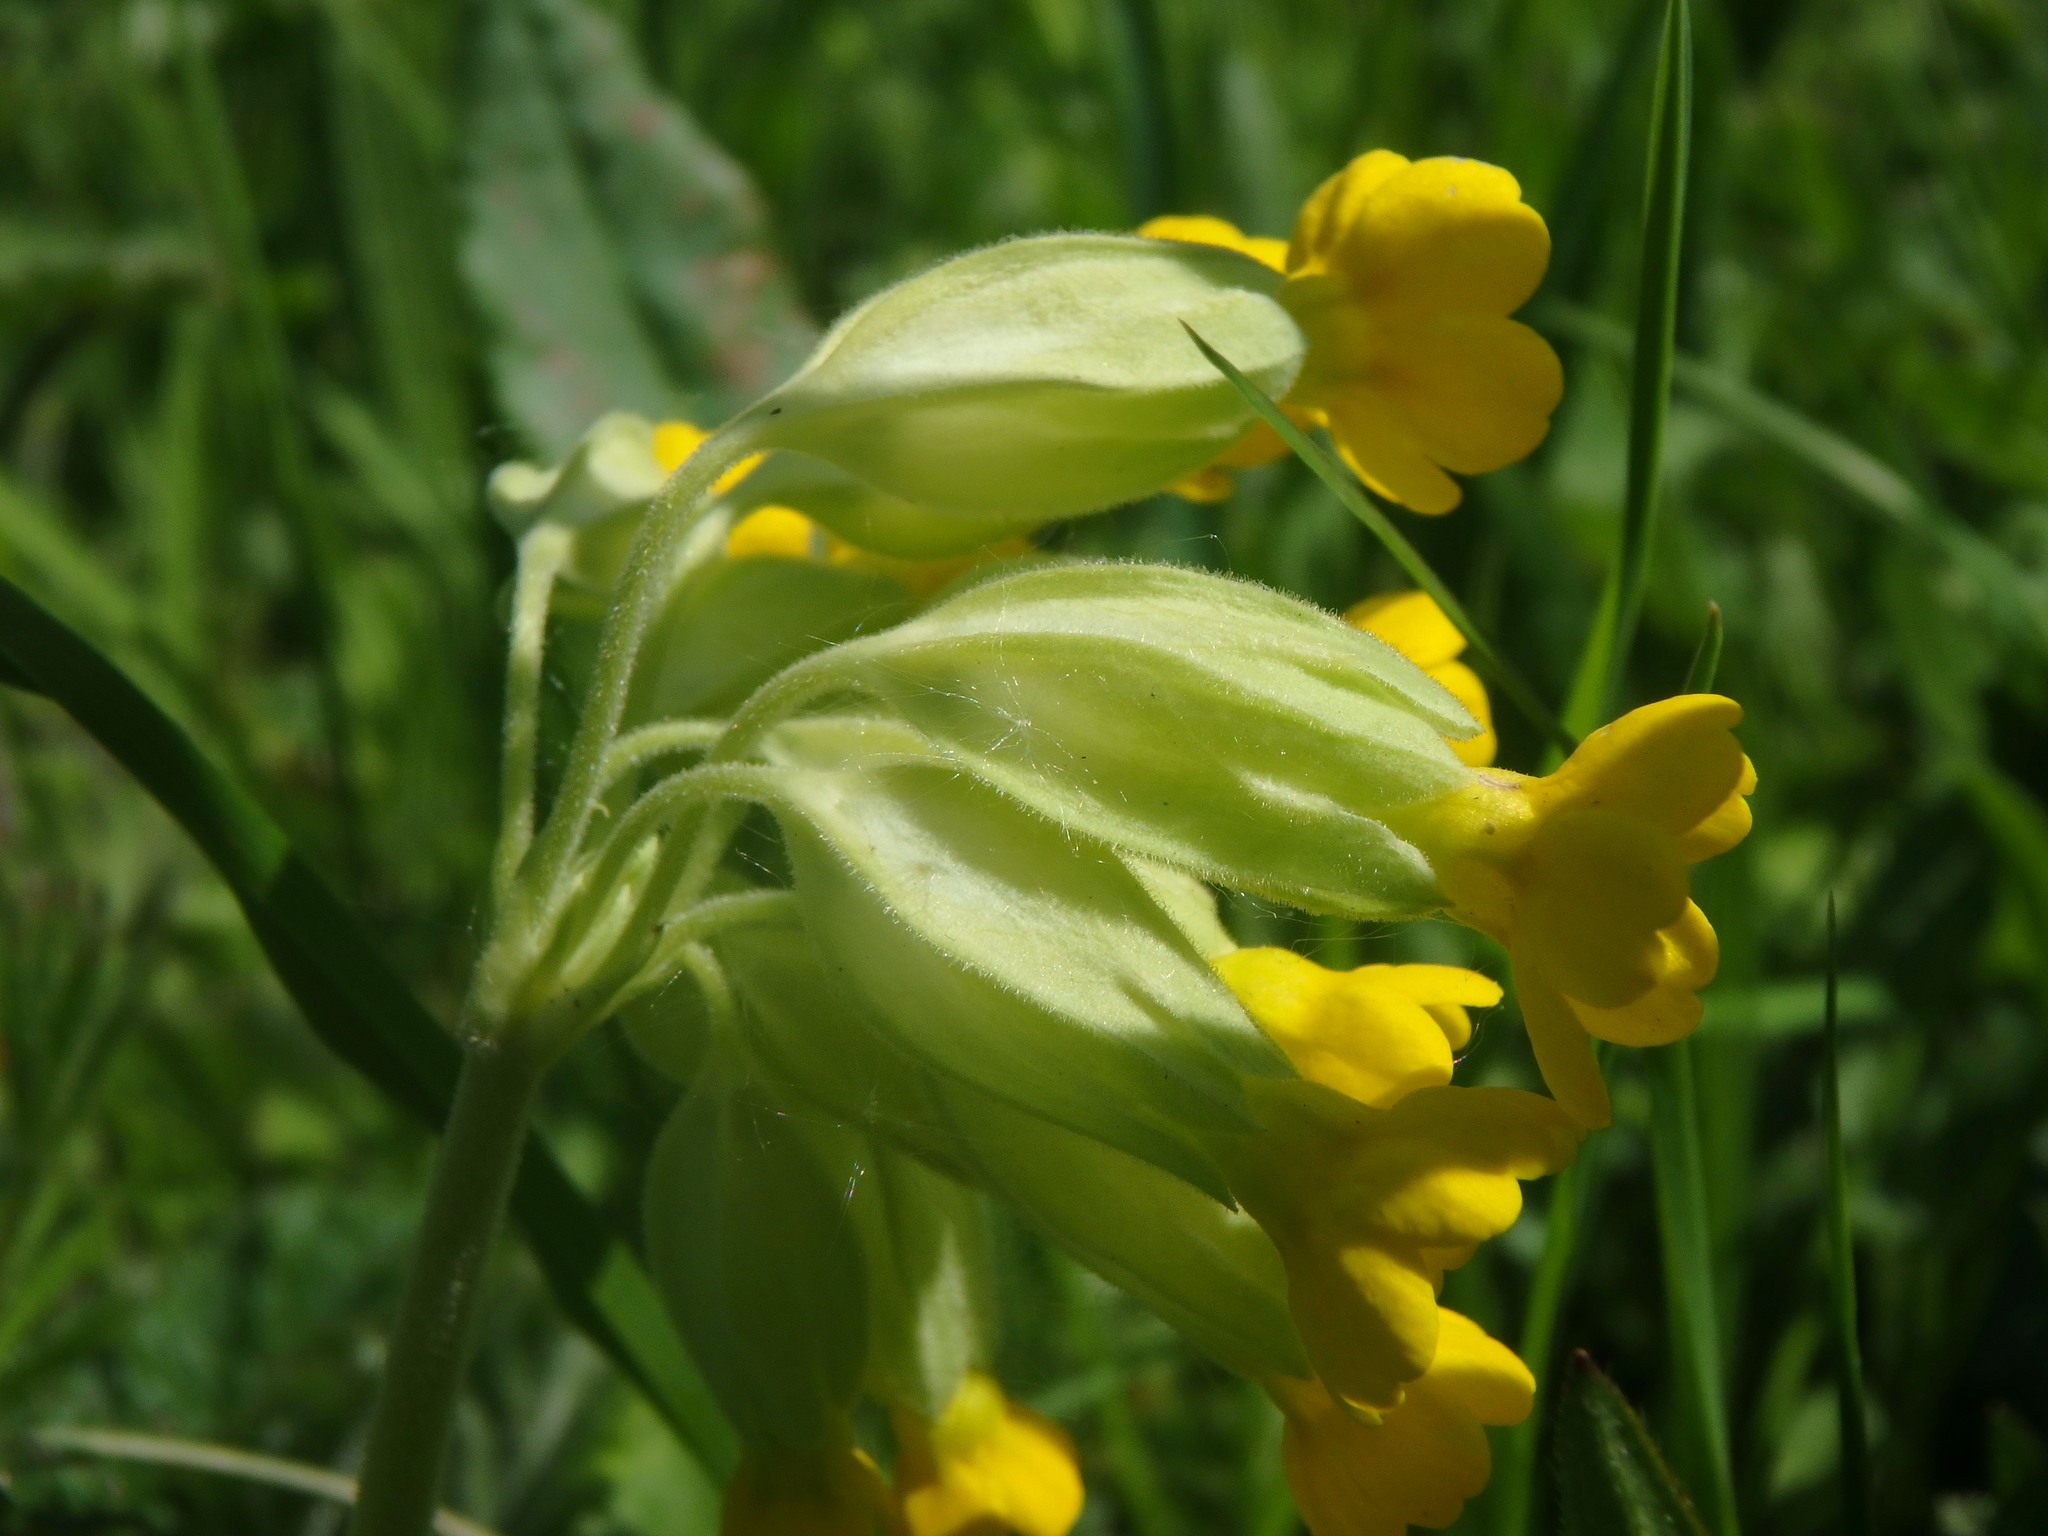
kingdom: Plantae
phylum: Tracheophyta
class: Magnoliopsida
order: Ericales
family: Primulaceae
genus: Primula
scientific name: Primula veris
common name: Cowslip
